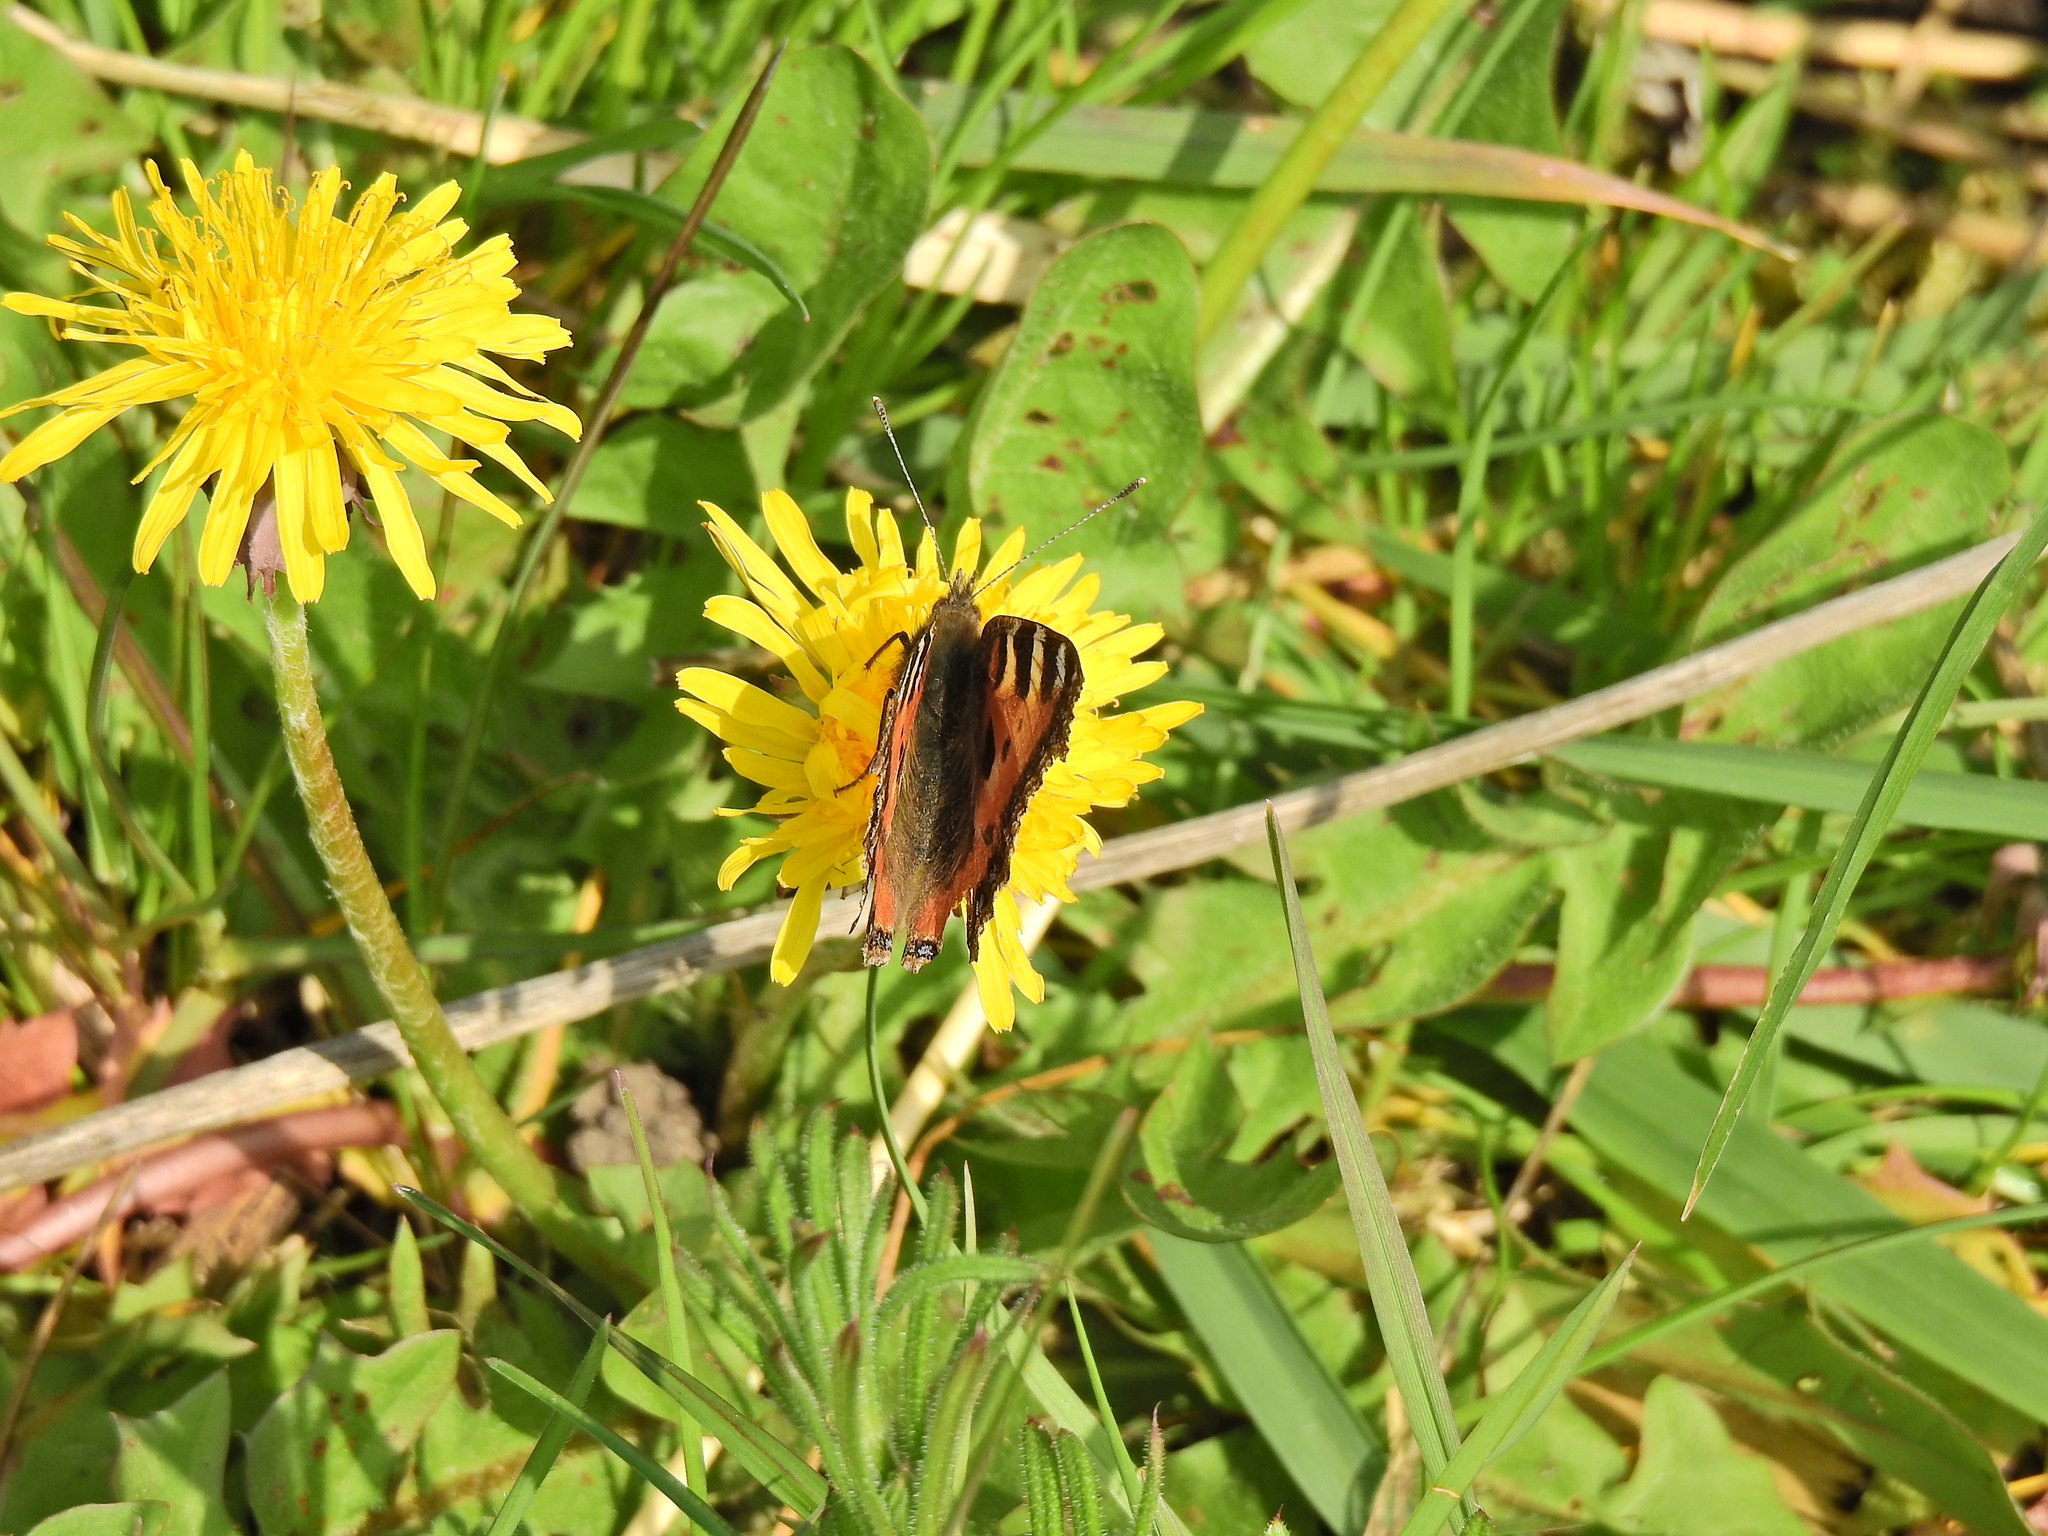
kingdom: Animalia
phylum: Arthropoda
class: Insecta
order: Lepidoptera
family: Nymphalidae
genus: Aglais
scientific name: Aglais urticae
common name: Small tortoiseshell
